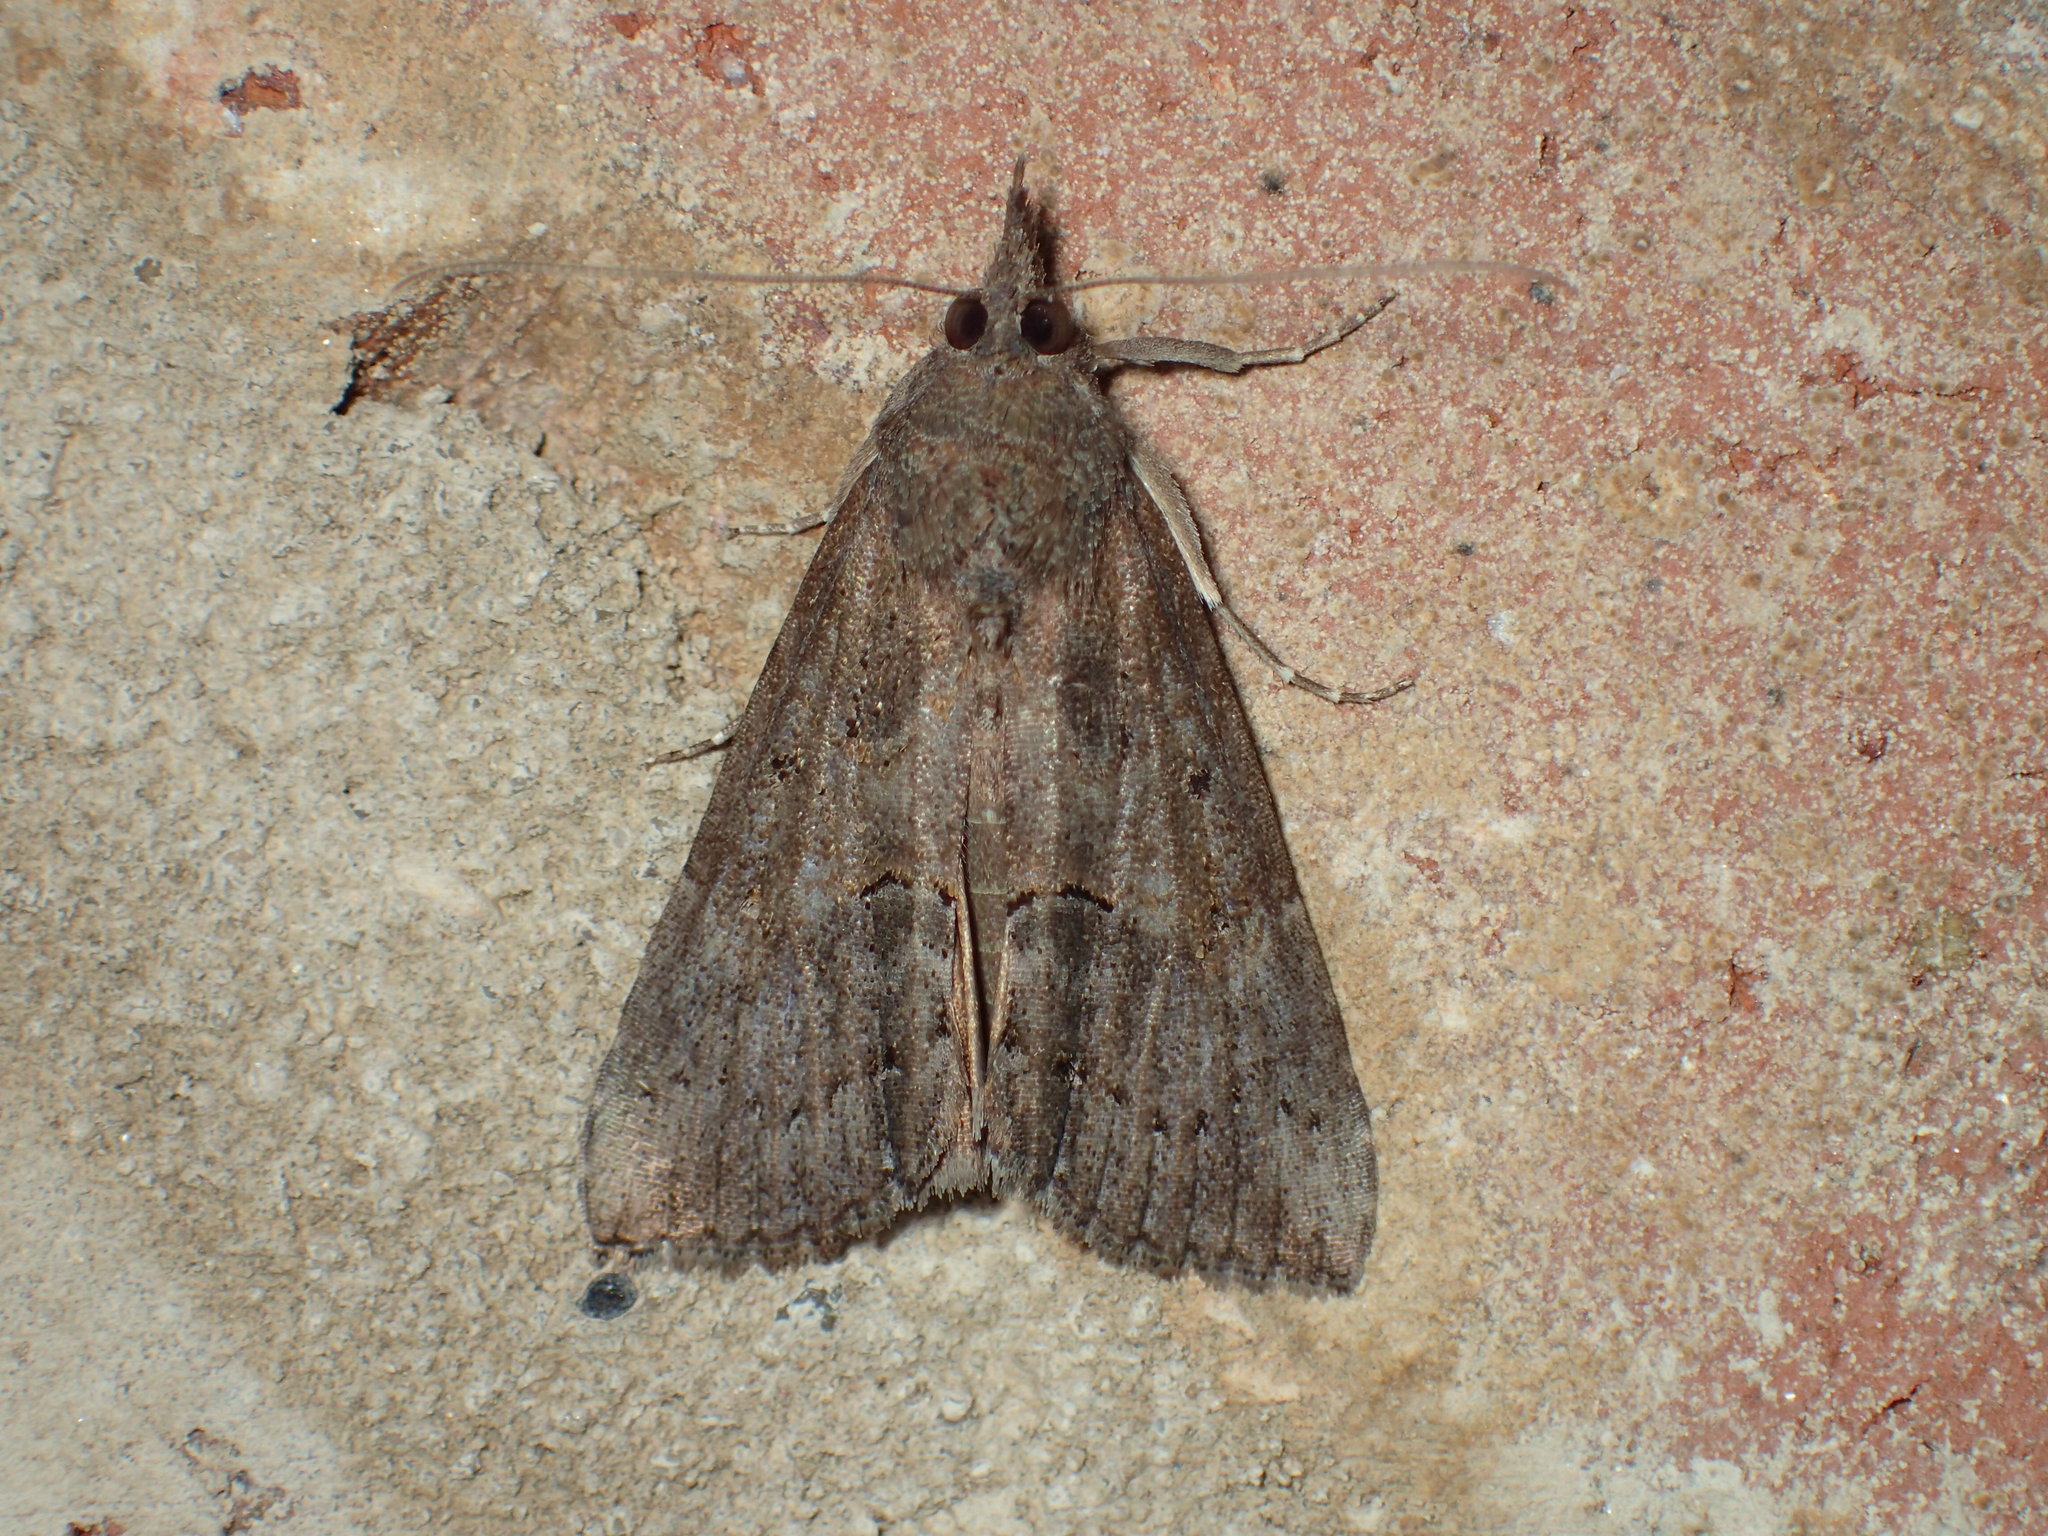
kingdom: Animalia
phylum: Arthropoda
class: Insecta
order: Lepidoptera
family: Erebidae
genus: Hypena
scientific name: Hypena scabra
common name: Green cloverworm
